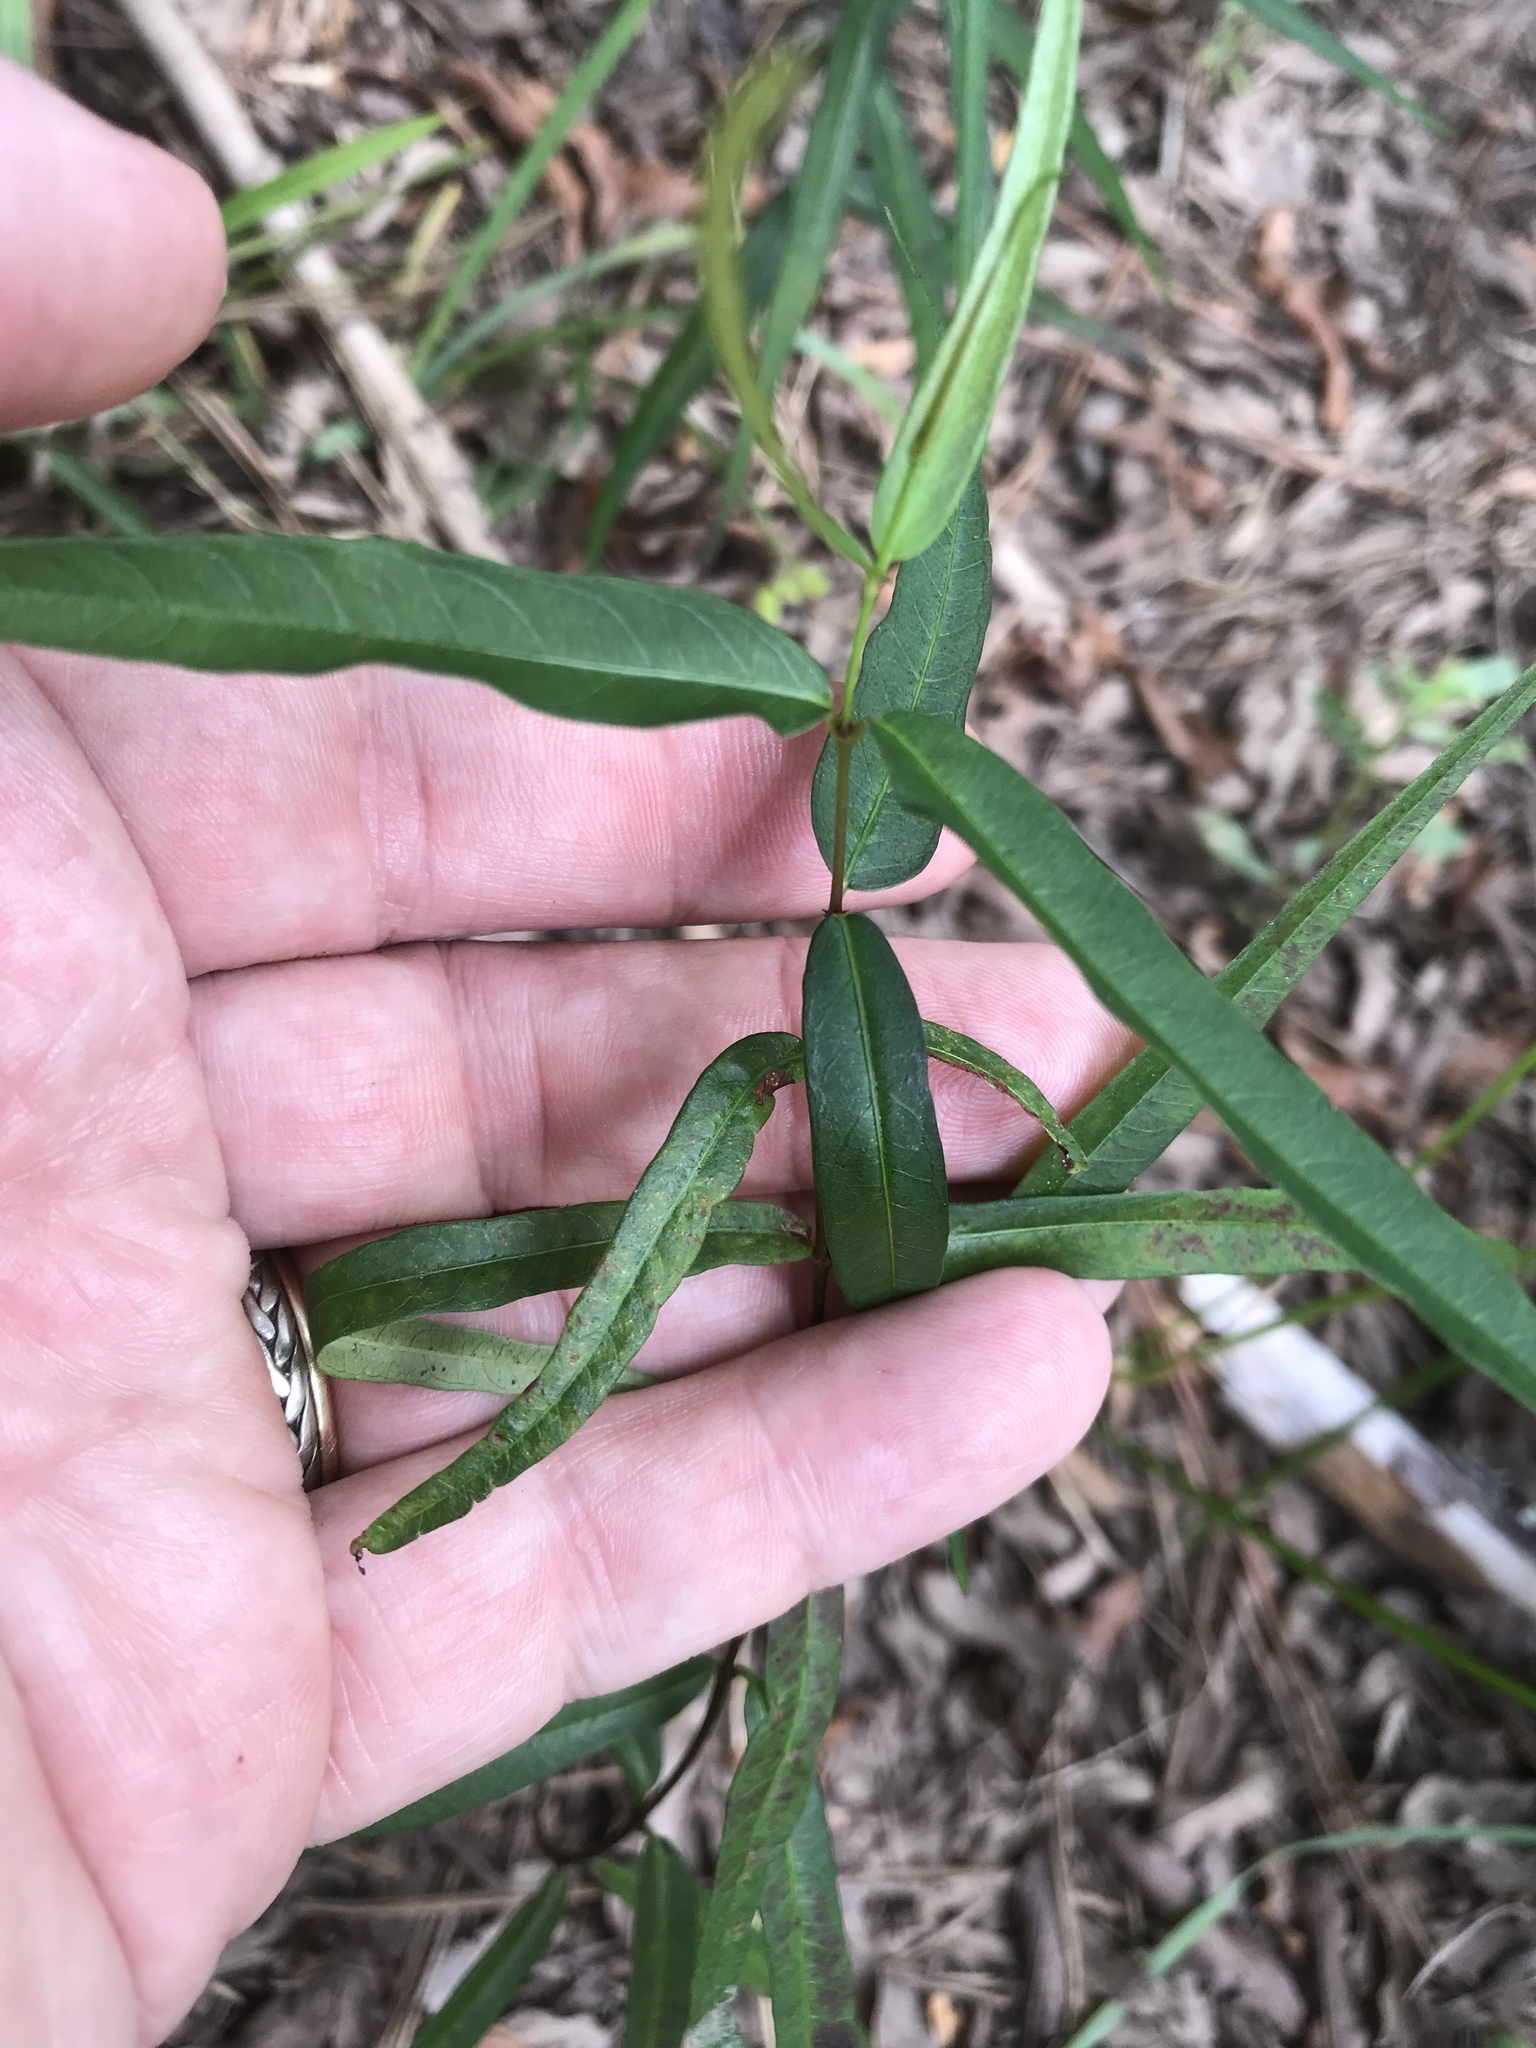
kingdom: Plantae
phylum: Tracheophyta
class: Magnoliopsida
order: Gentianales
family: Apocynaceae
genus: Thyrsanthella
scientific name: Thyrsanthella difformis
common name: Climbing dogbane
